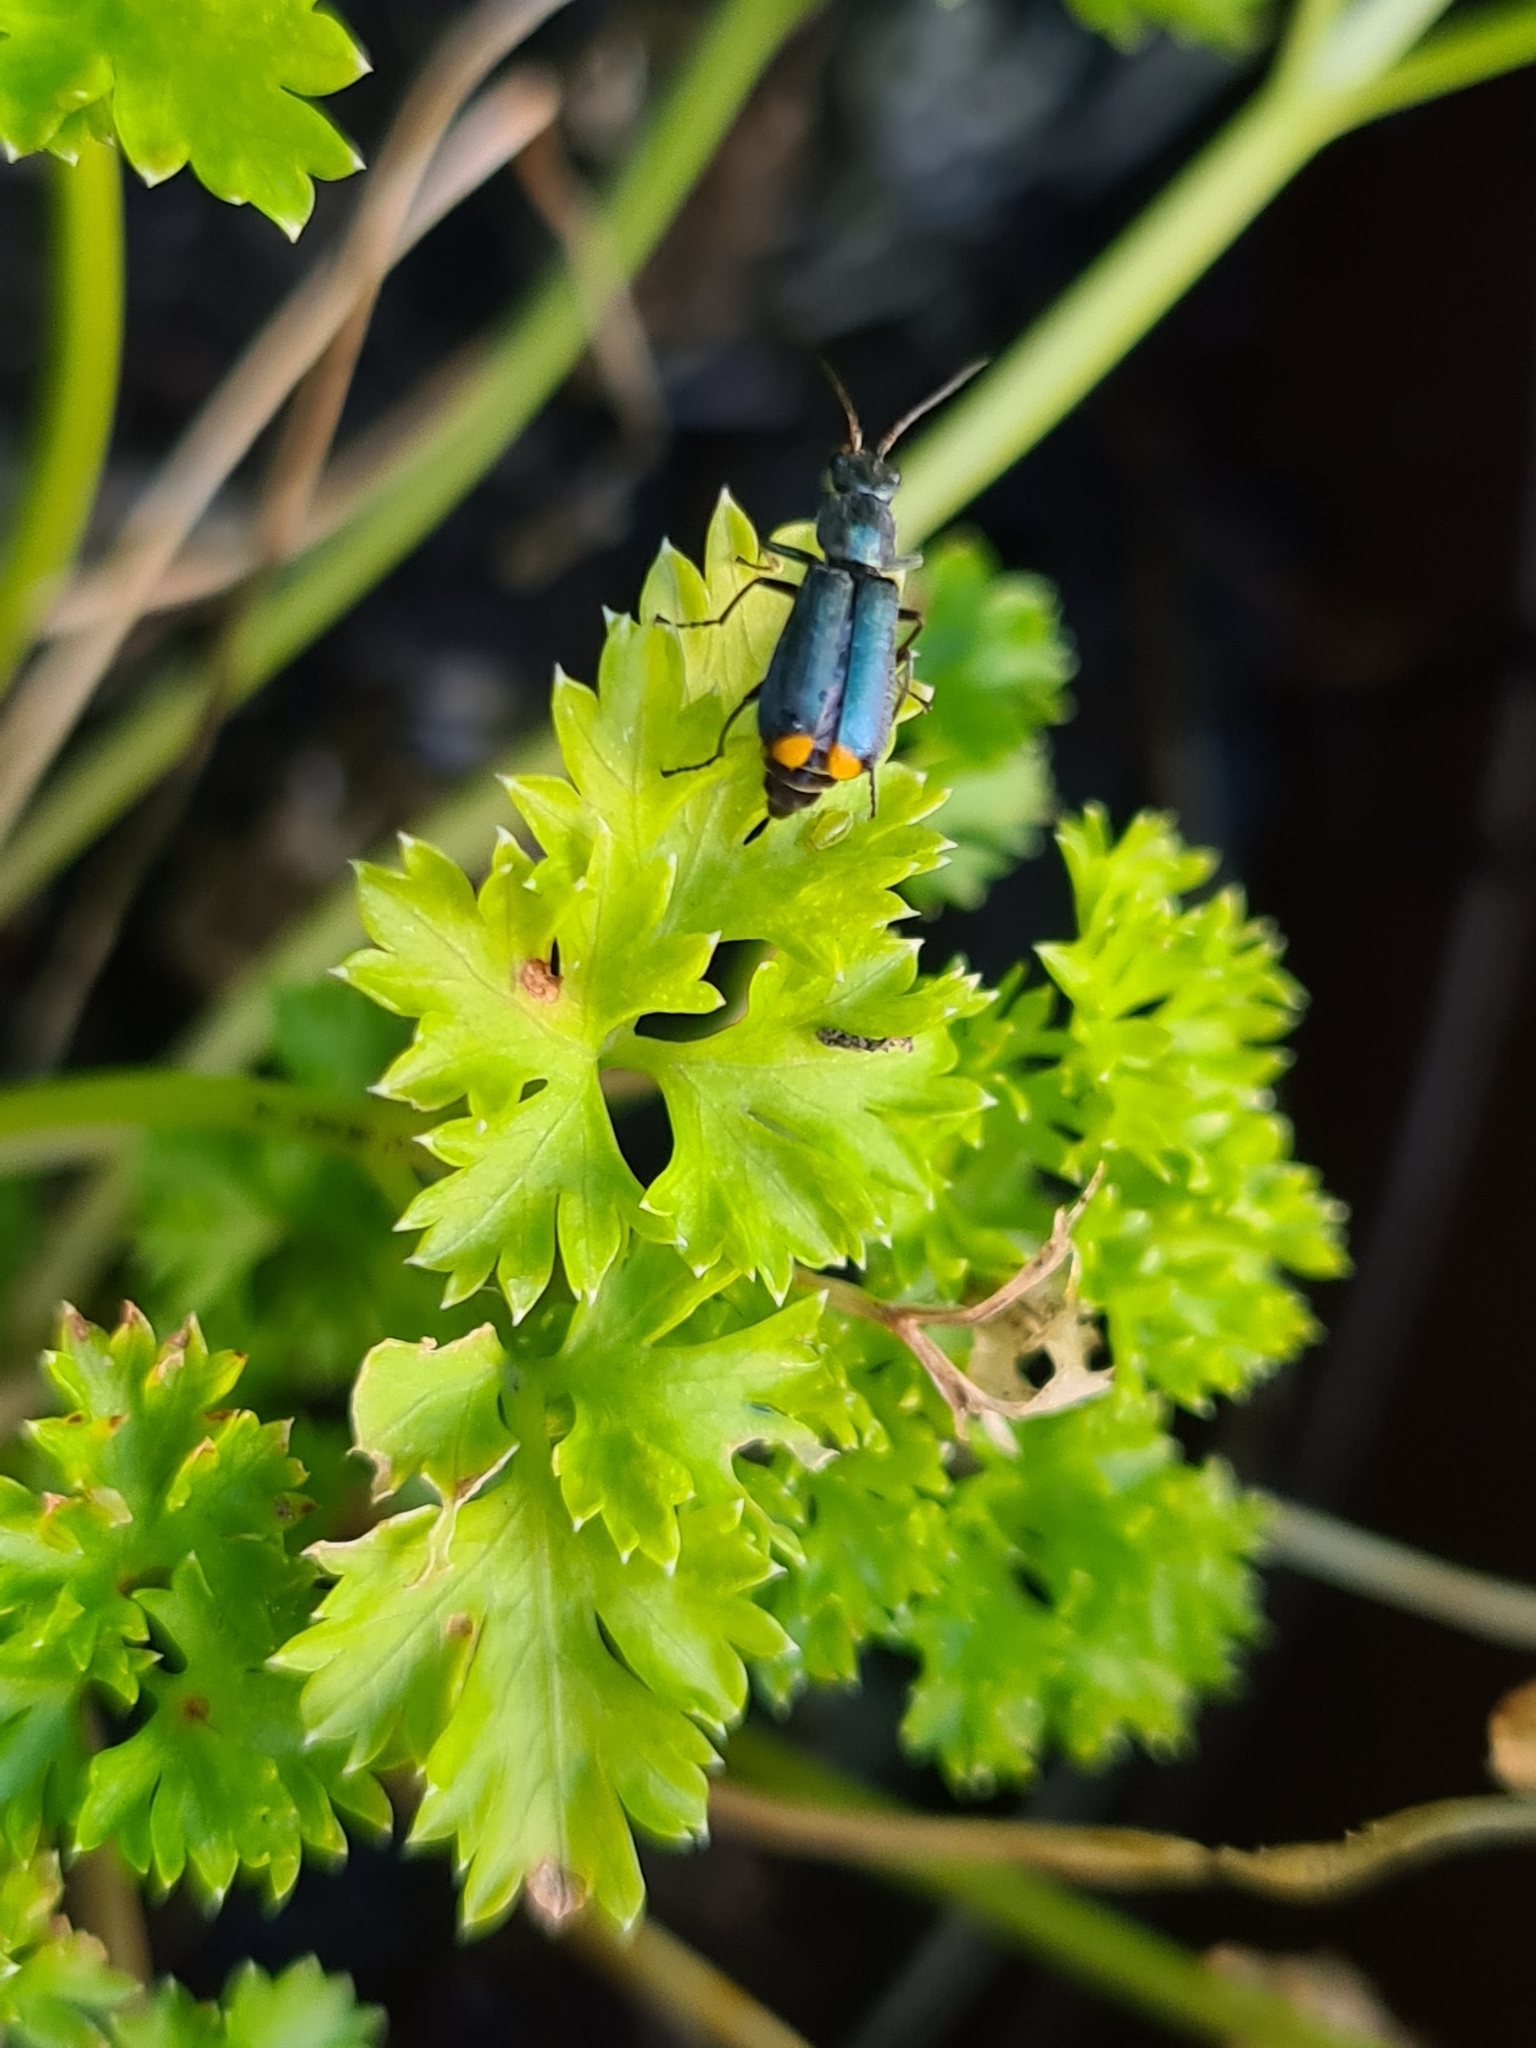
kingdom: Animalia
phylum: Arthropoda
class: Insecta
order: Coleoptera
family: Melyridae
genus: Malachius
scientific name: Malachius bipustulatus
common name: Malachite beetle
